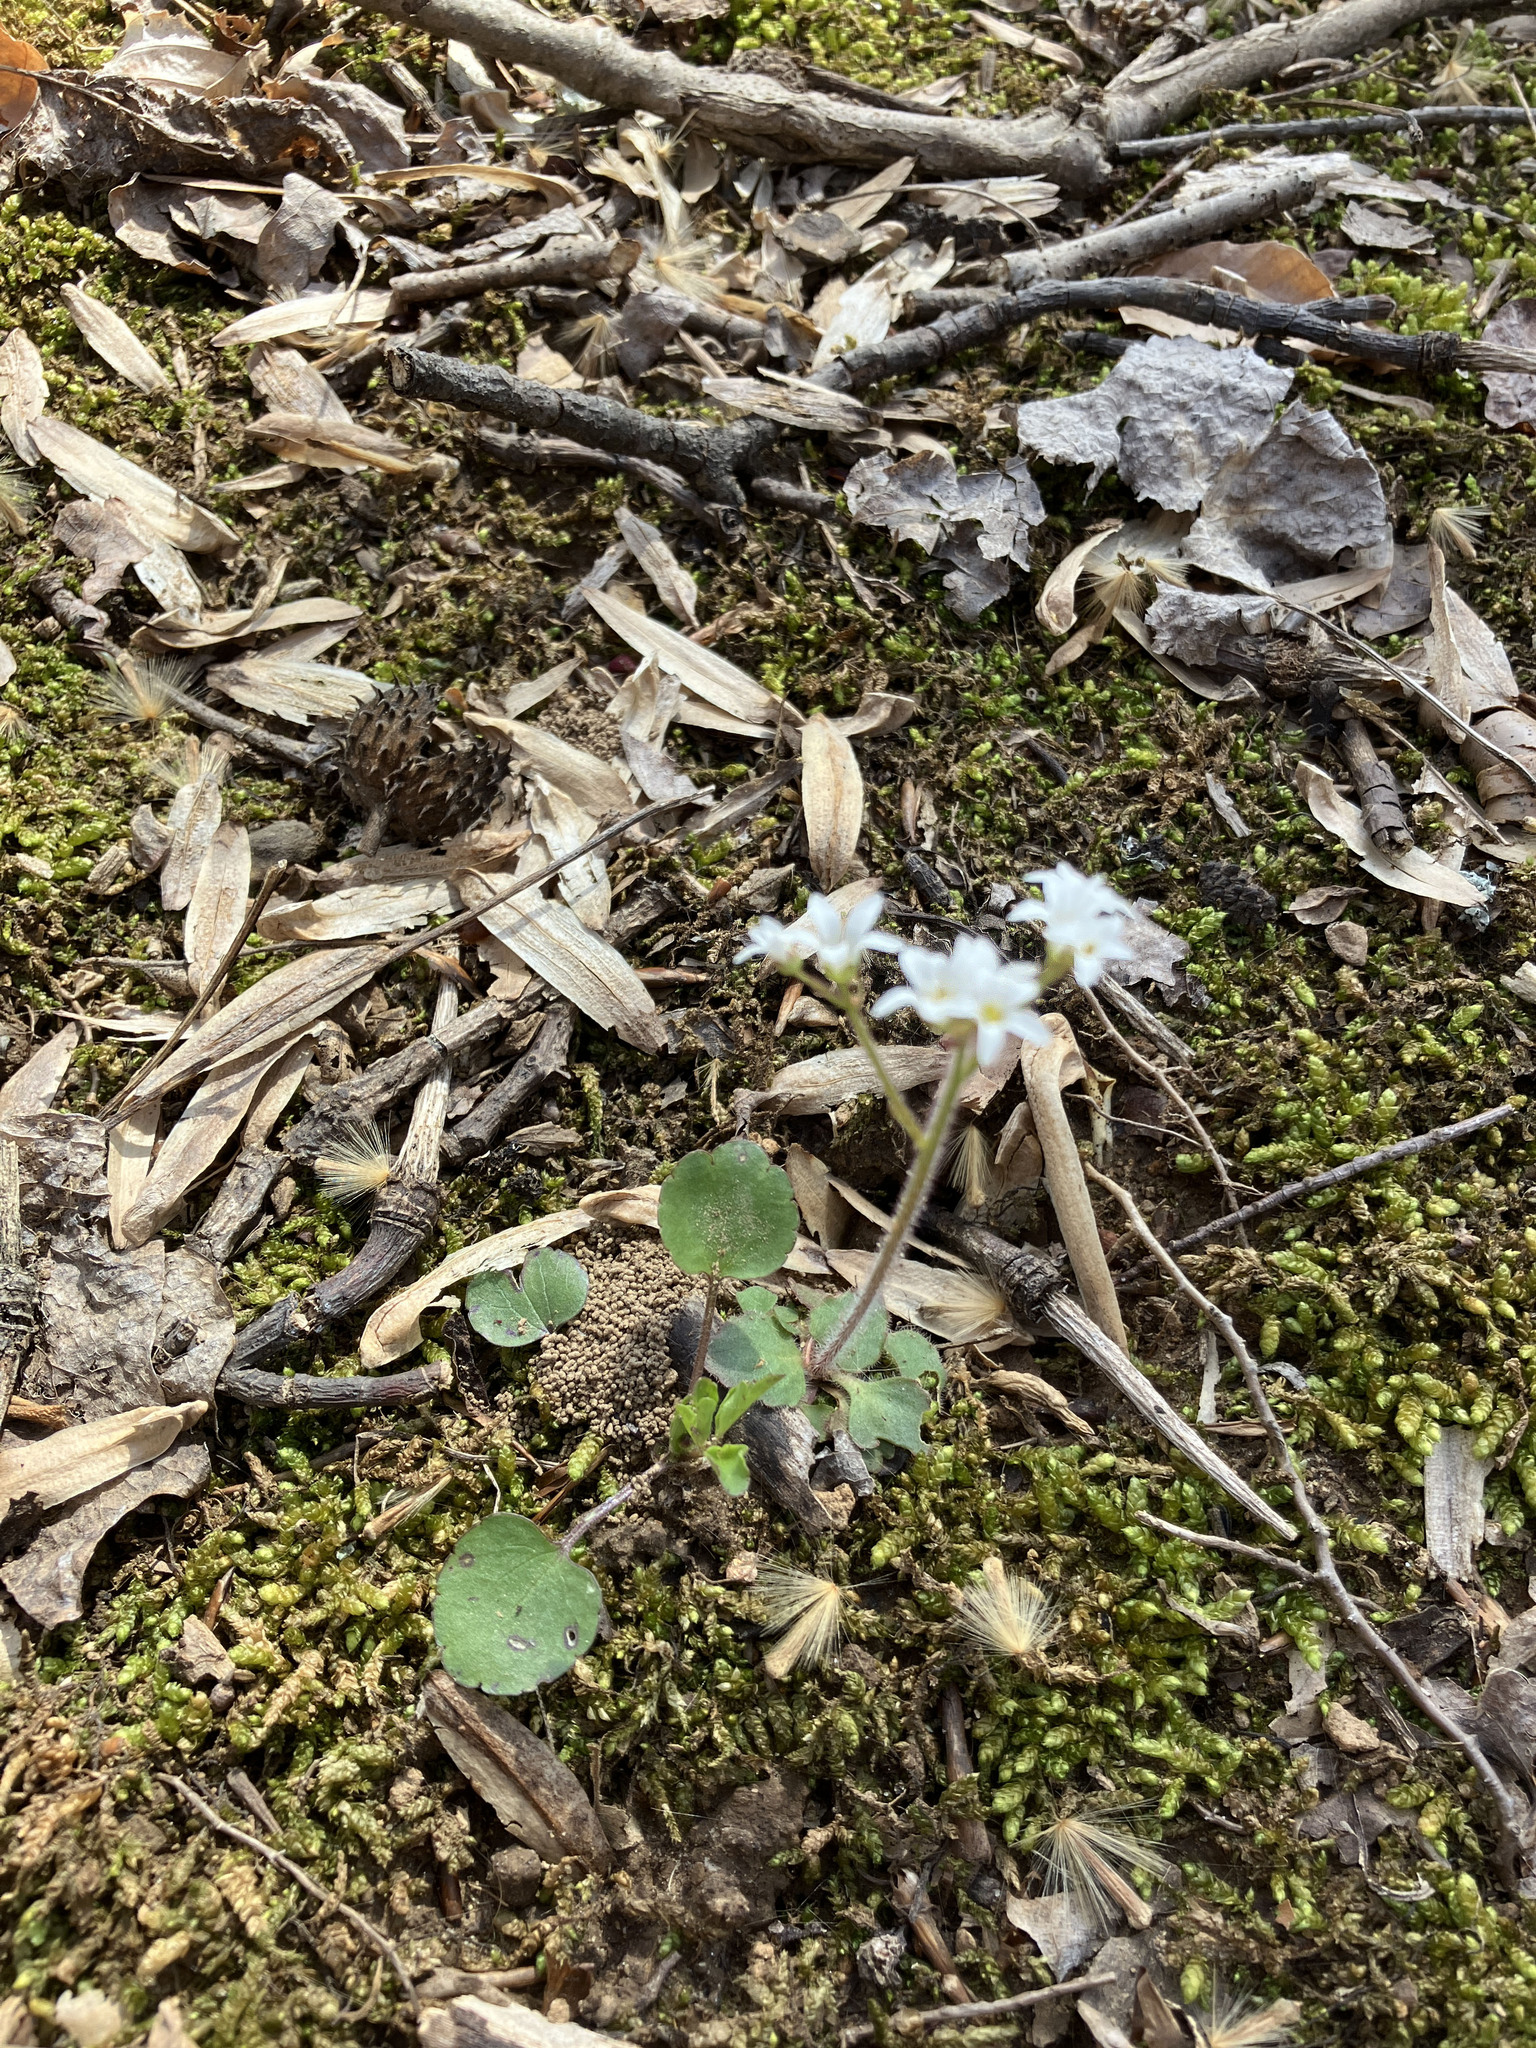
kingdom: Plantae
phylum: Tracheophyta
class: Magnoliopsida
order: Saxifragales
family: Saxifragaceae
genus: Micranthes
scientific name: Micranthes virginiensis
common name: Early saxifrage
